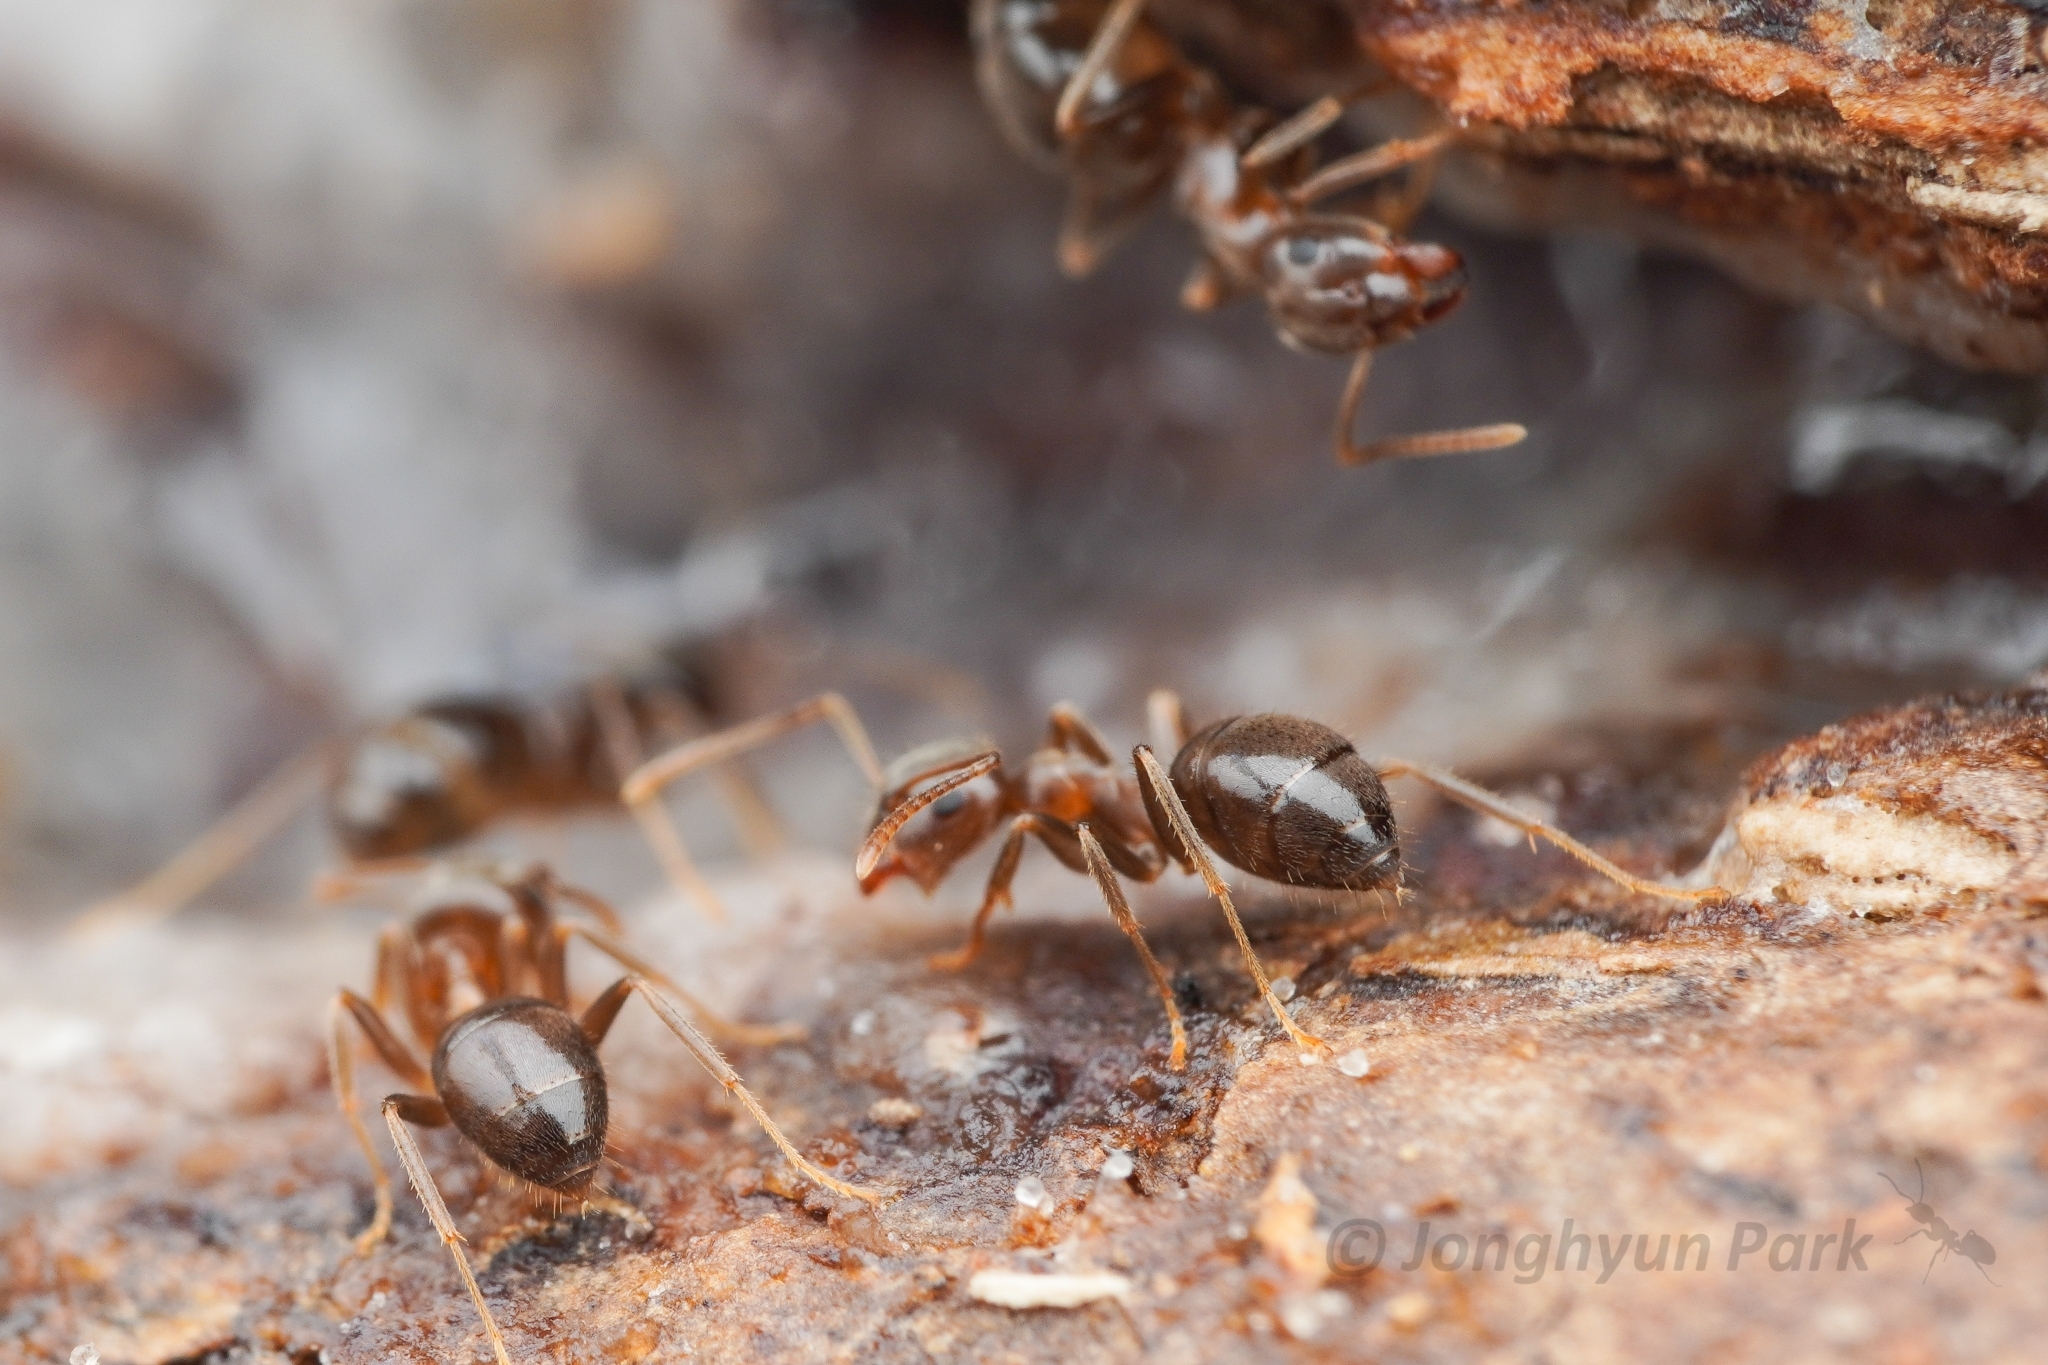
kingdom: Animalia
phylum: Arthropoda
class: Insecta
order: Hymenoptera
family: Formicidae
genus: Lasius
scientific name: Lasius koreanus
